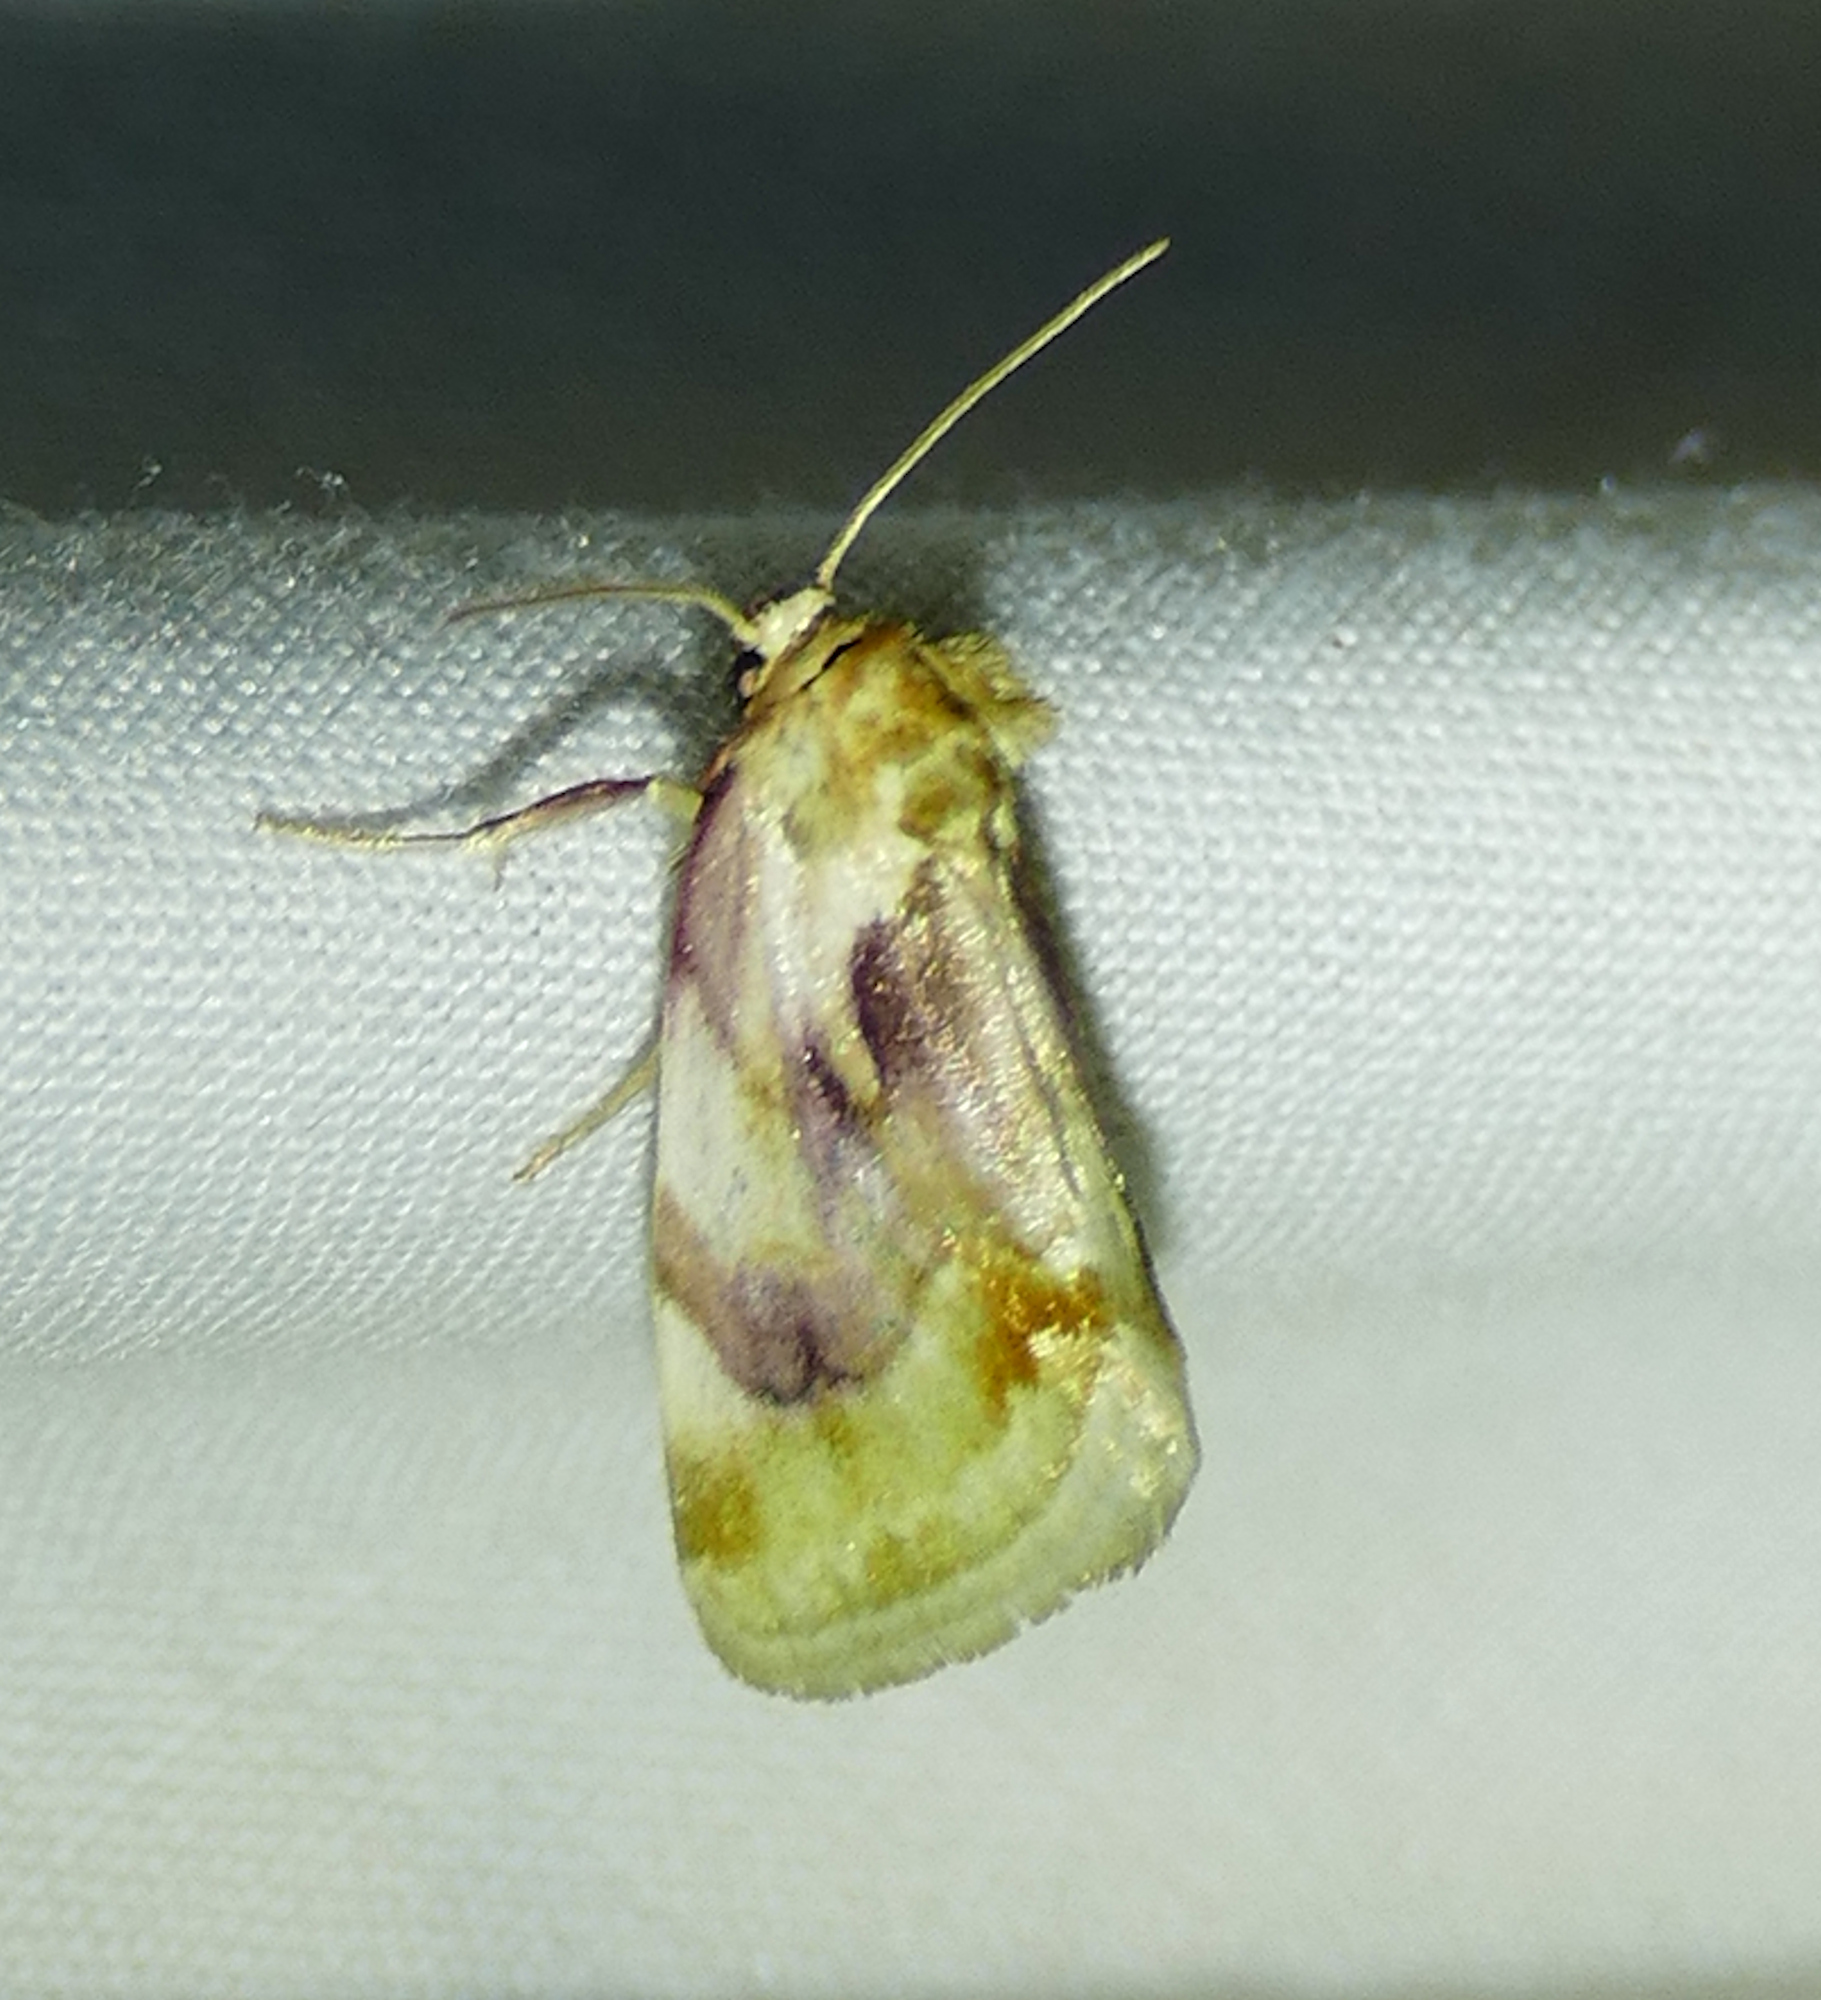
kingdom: Animalia
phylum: Arthropoda
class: Insecta
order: Lepidoptera
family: Noctuidae
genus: Chamaeclea
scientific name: Chamaeclea pernana
